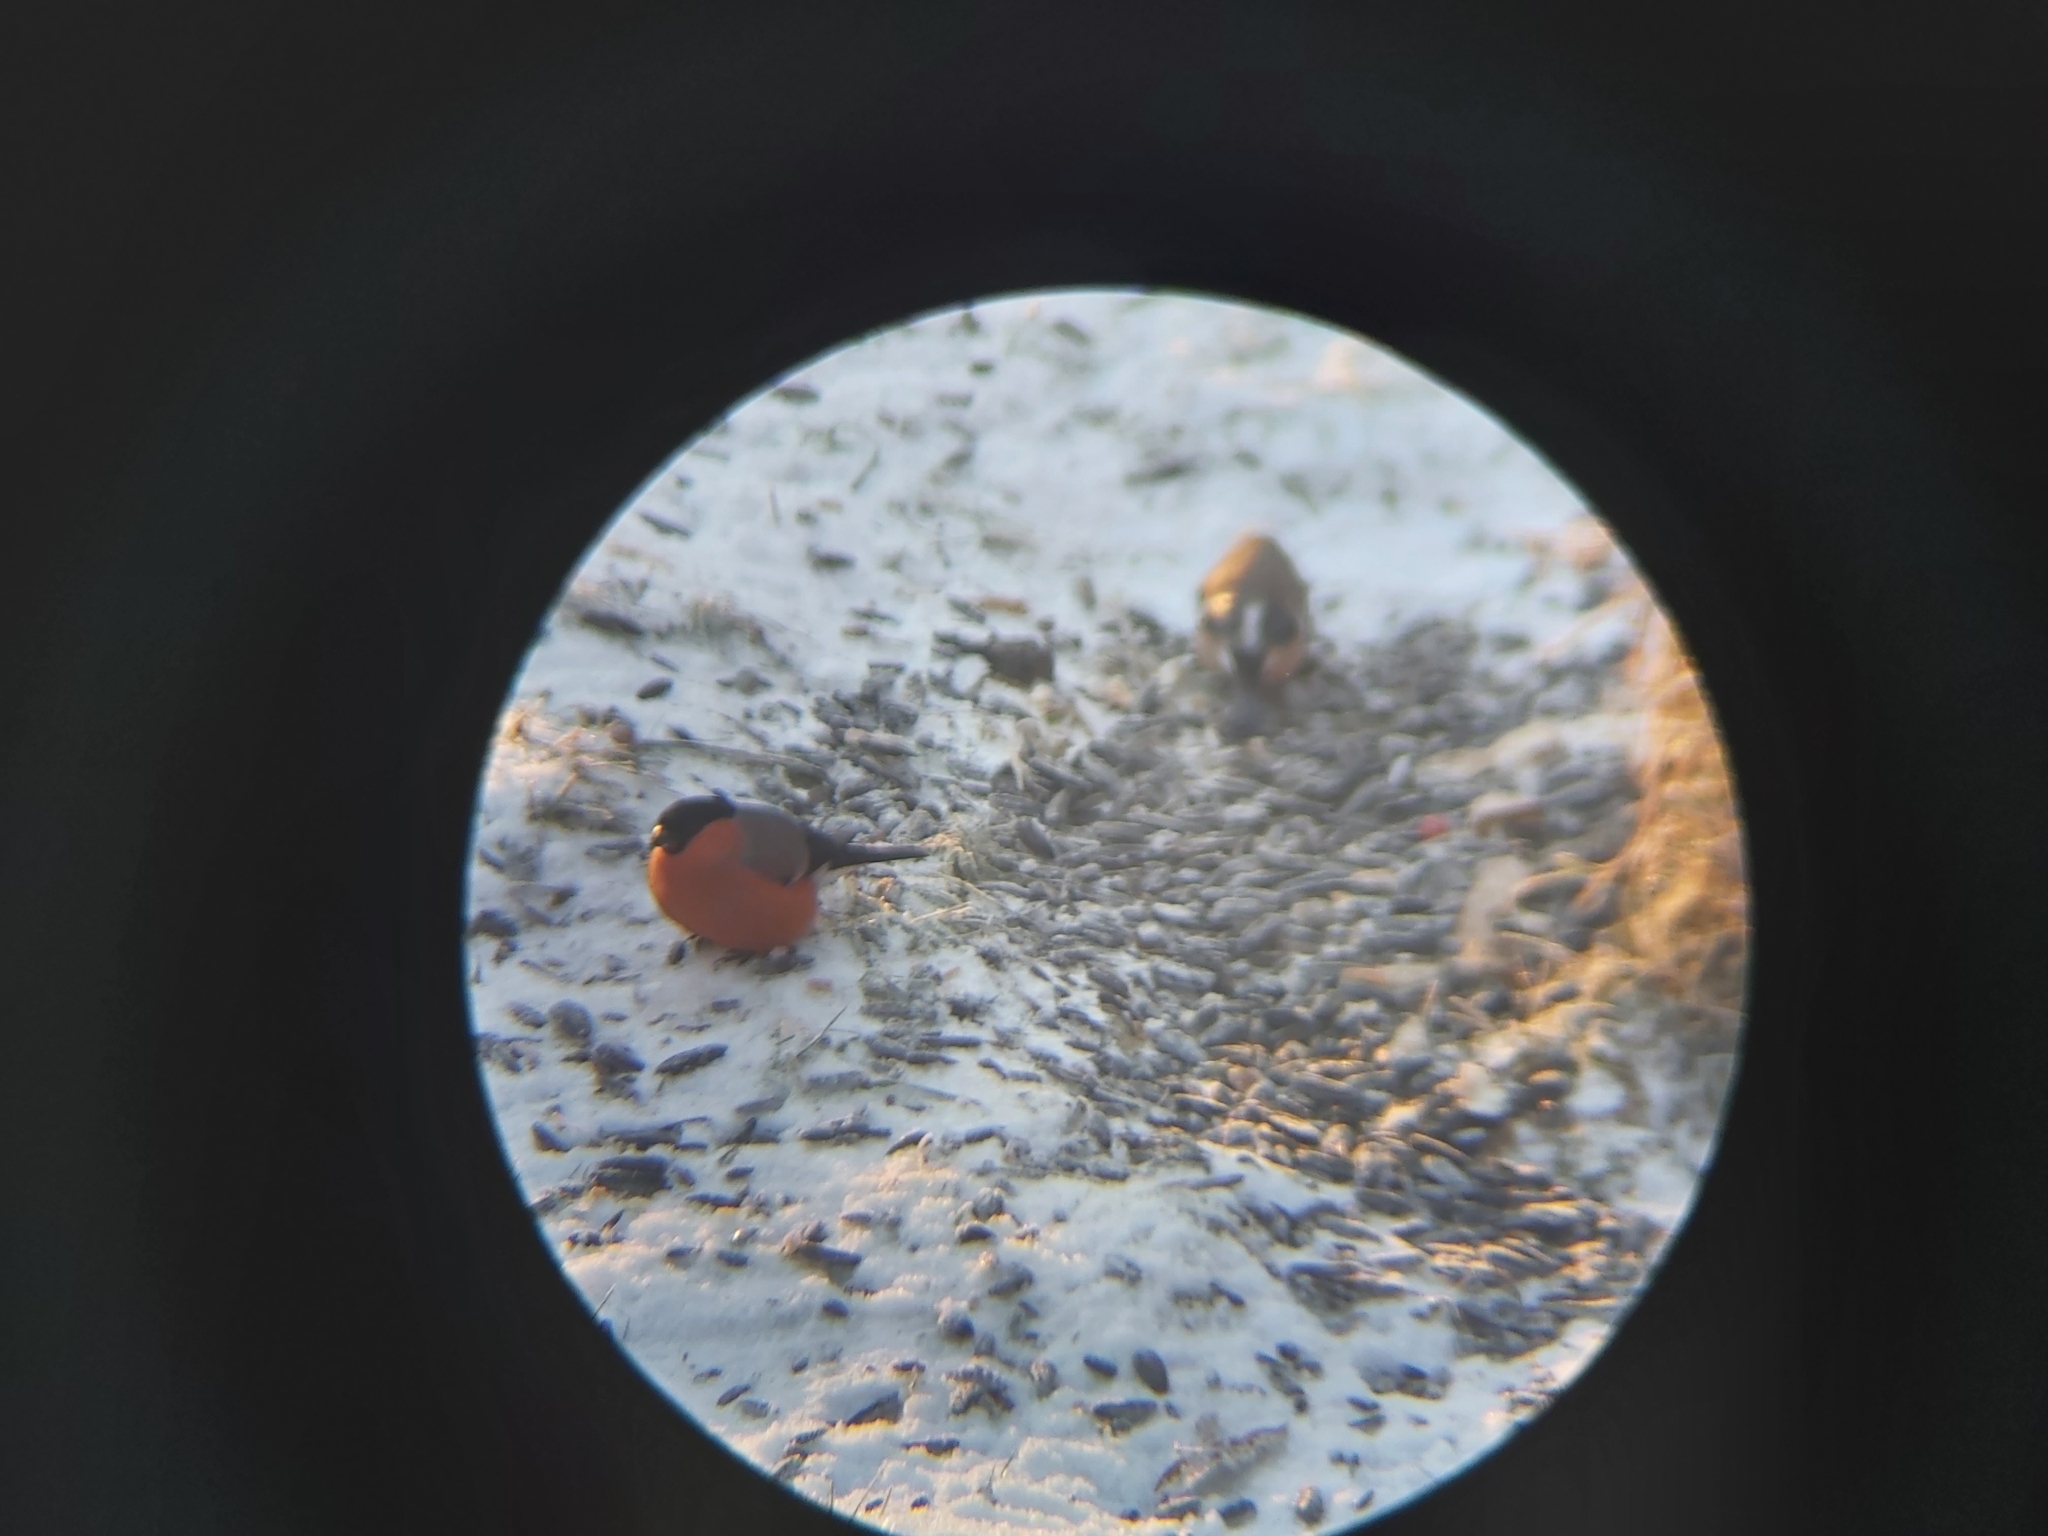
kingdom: Animalia
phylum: Chordata
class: Aves
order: Passeriformes
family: Fringillidae
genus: Pyrrhula
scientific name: Pyrrhula pyrrhula
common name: Eurasian bullfinch
